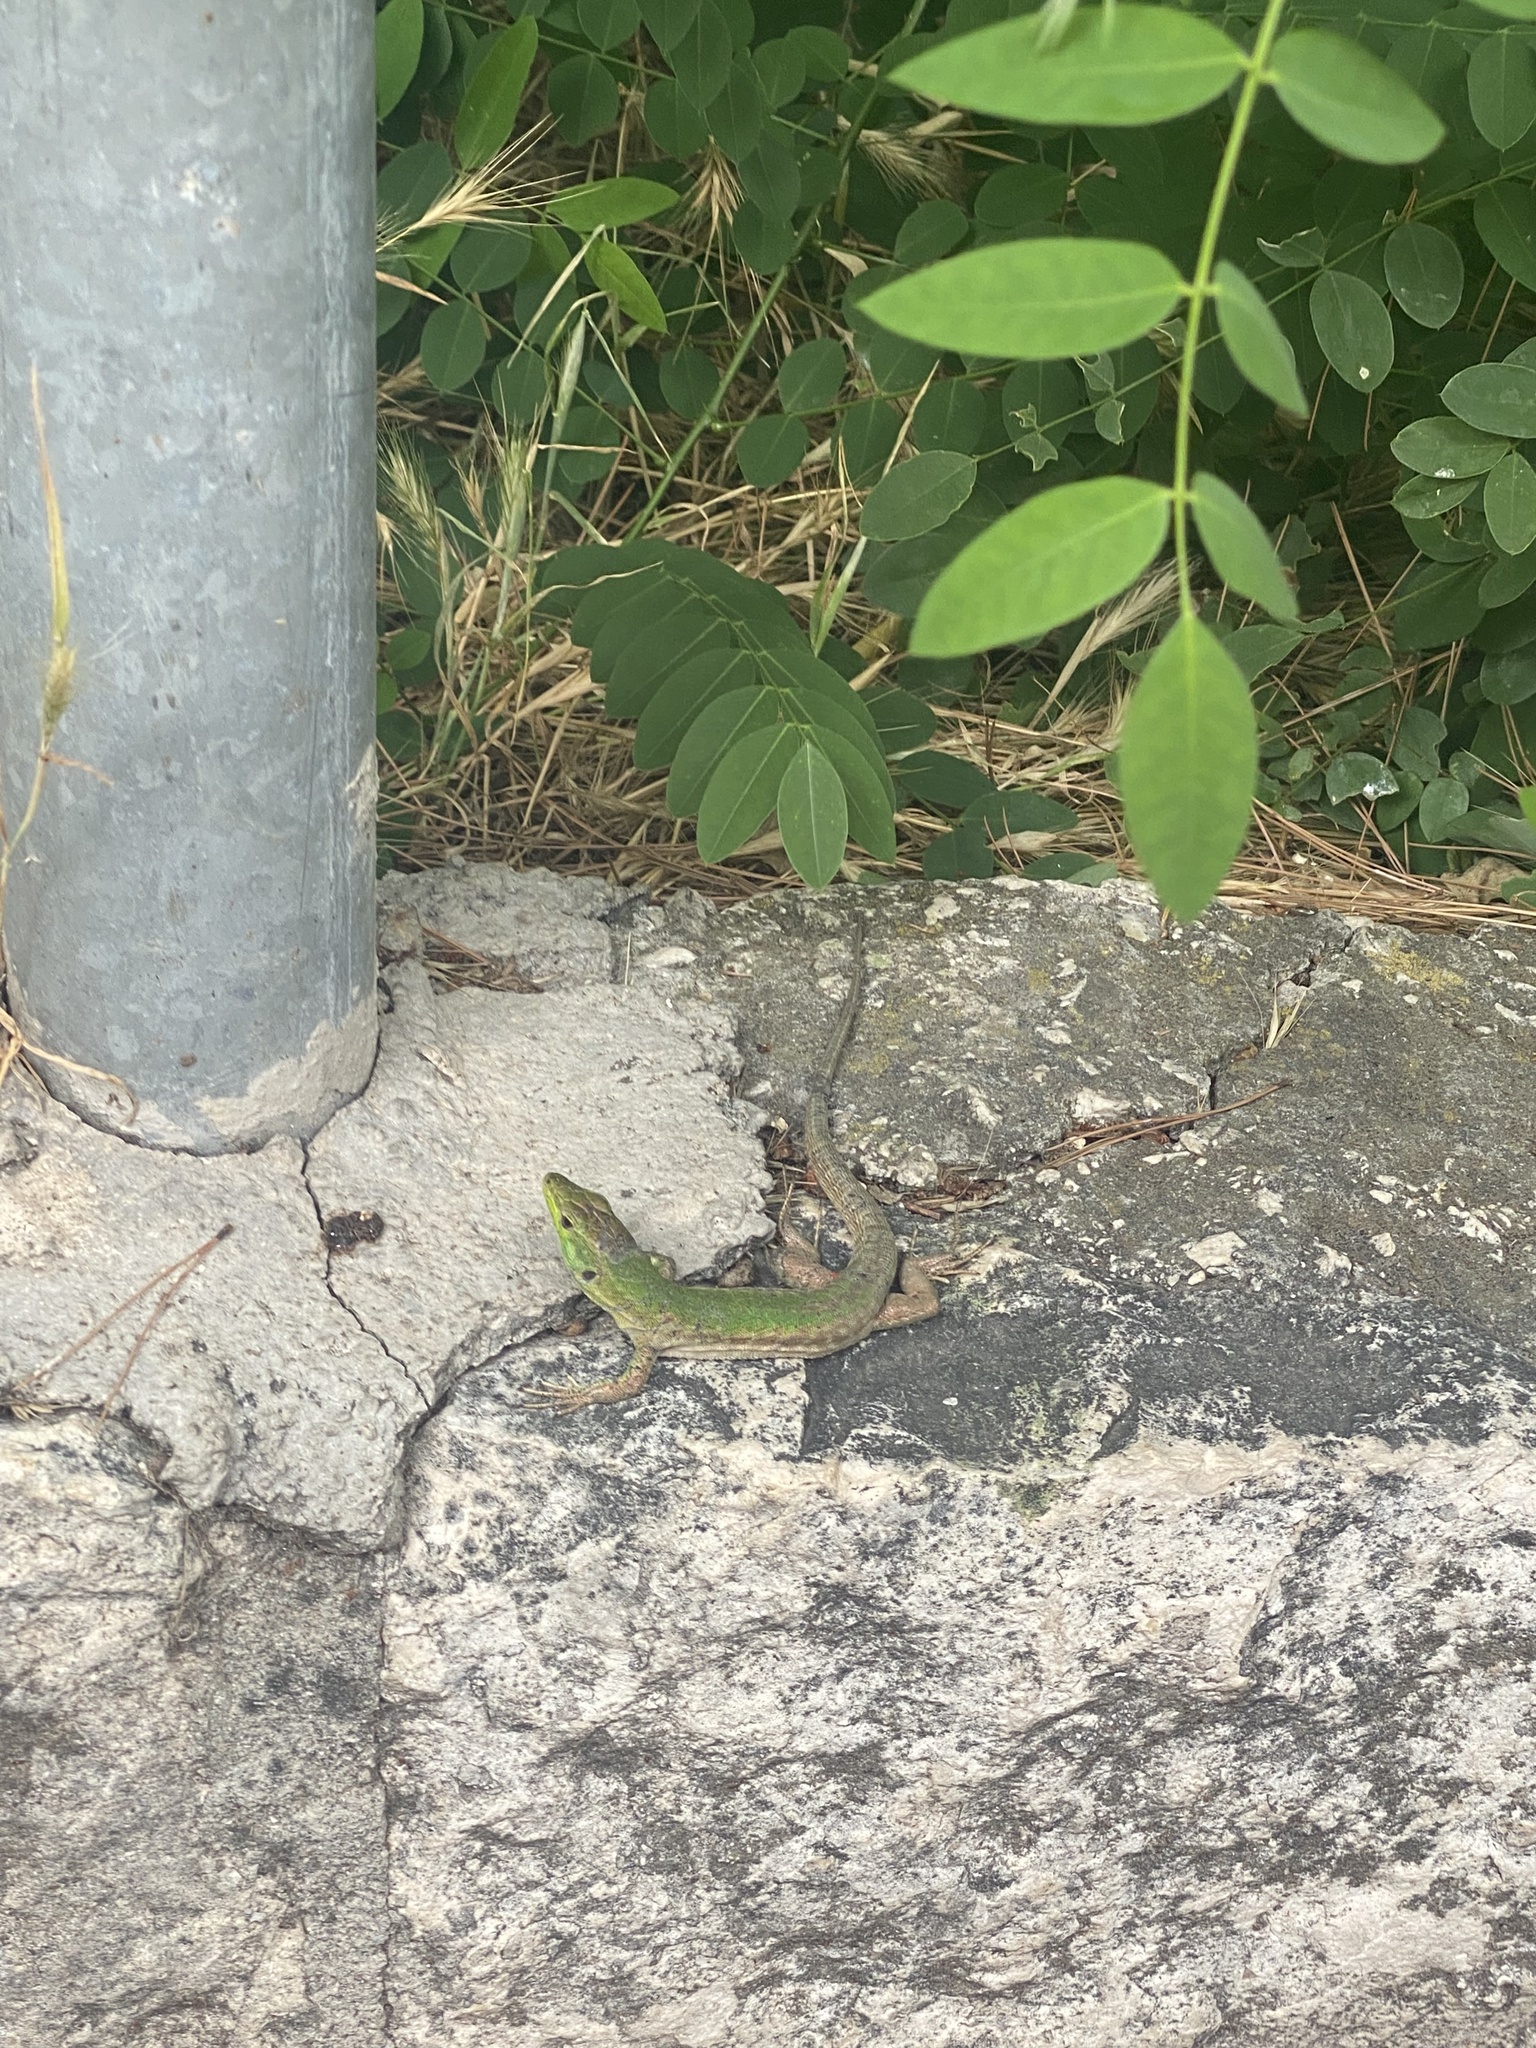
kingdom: Animalia
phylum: Chordata
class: Squamata
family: Lacertidae
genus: Podarcis
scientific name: Podarcis siculus
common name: Italian wall lizard
